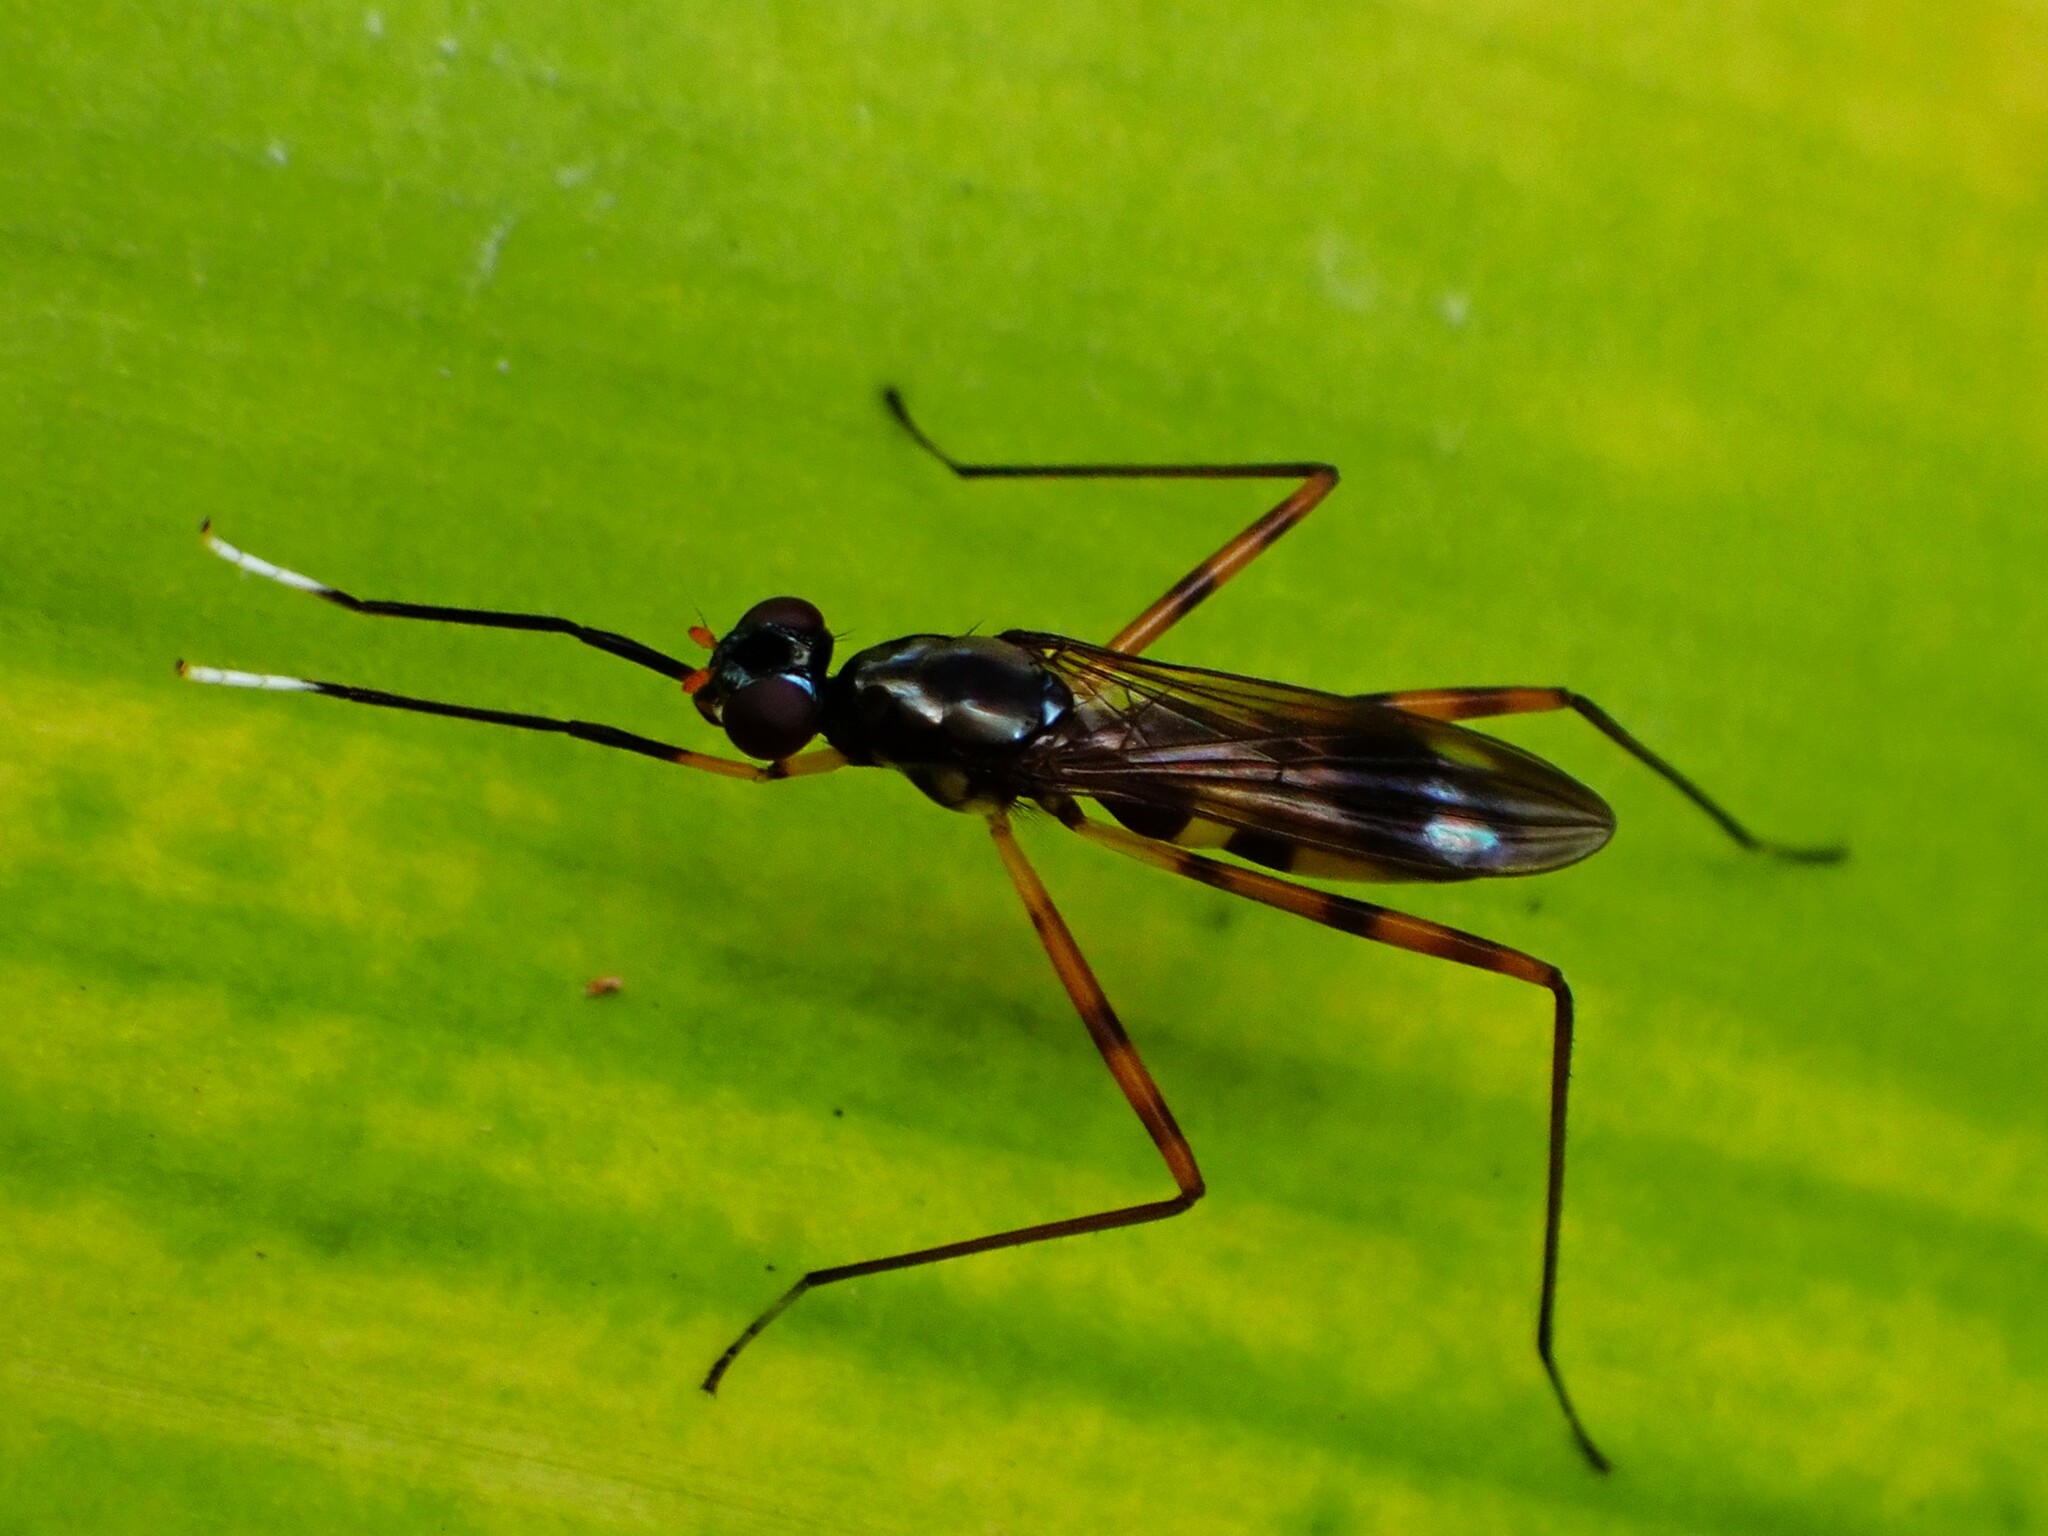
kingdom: Animalia
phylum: Arthropoda
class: Insecta
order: Diptera
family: Micropezidae
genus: Mimegralla
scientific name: Mimegralla albimanus
